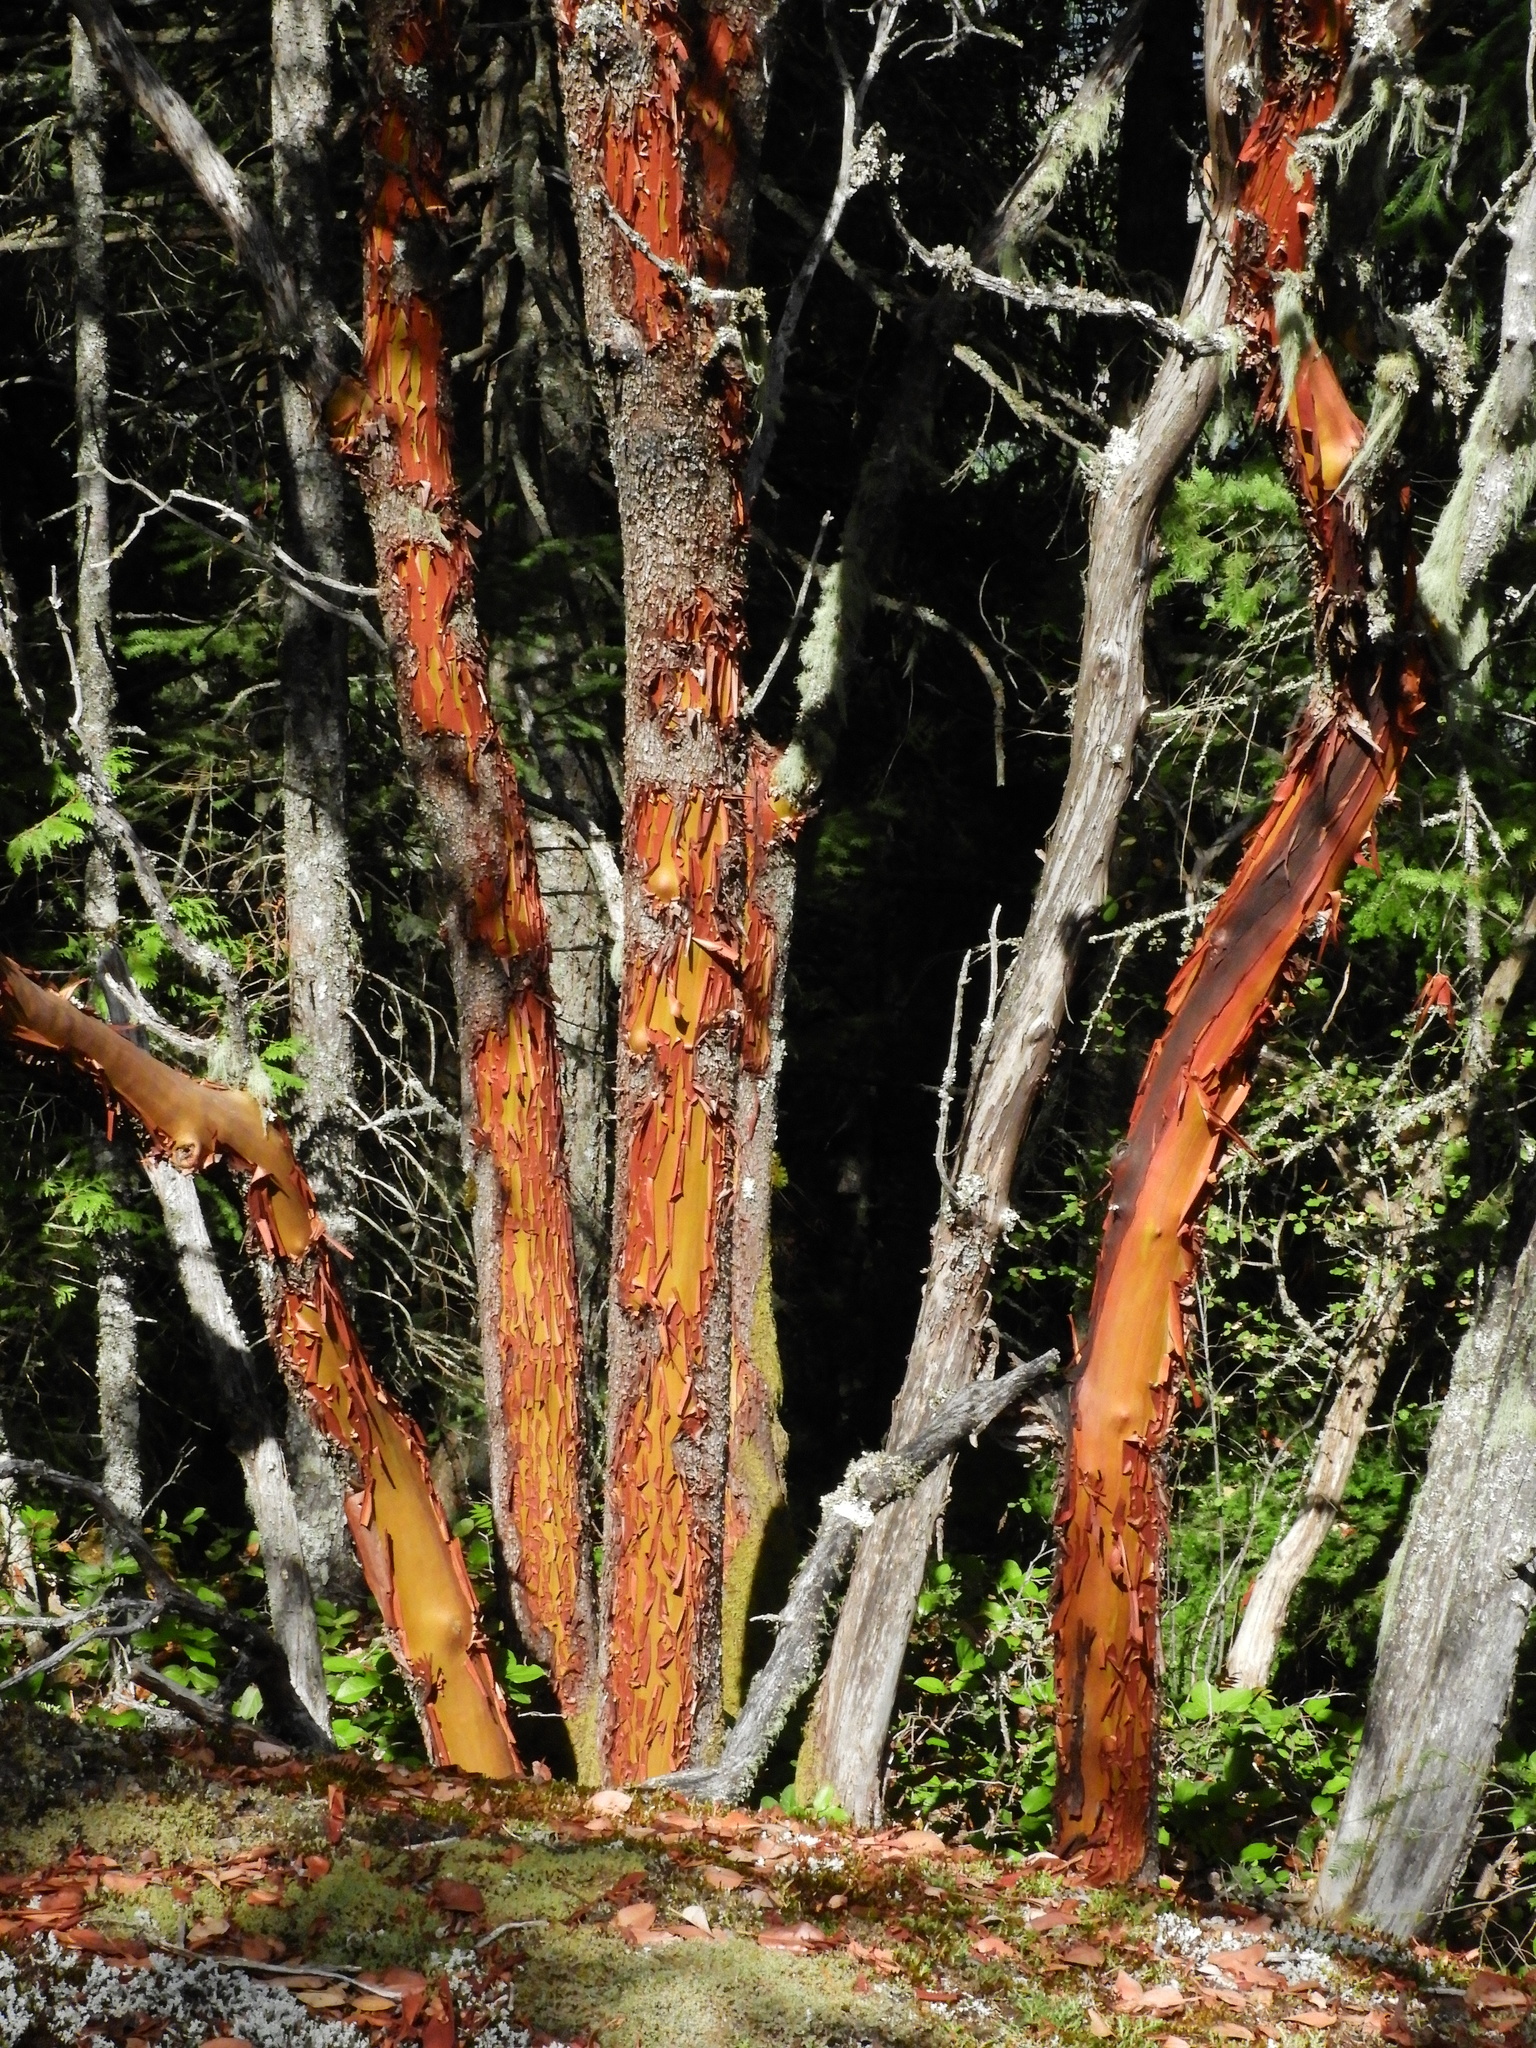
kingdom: Plantae
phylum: Tracheophyta
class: Magnoliopsida
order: Ericales
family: Ericaceae
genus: Arbutus
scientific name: Arbutus menziesii
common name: Pacific madrone
